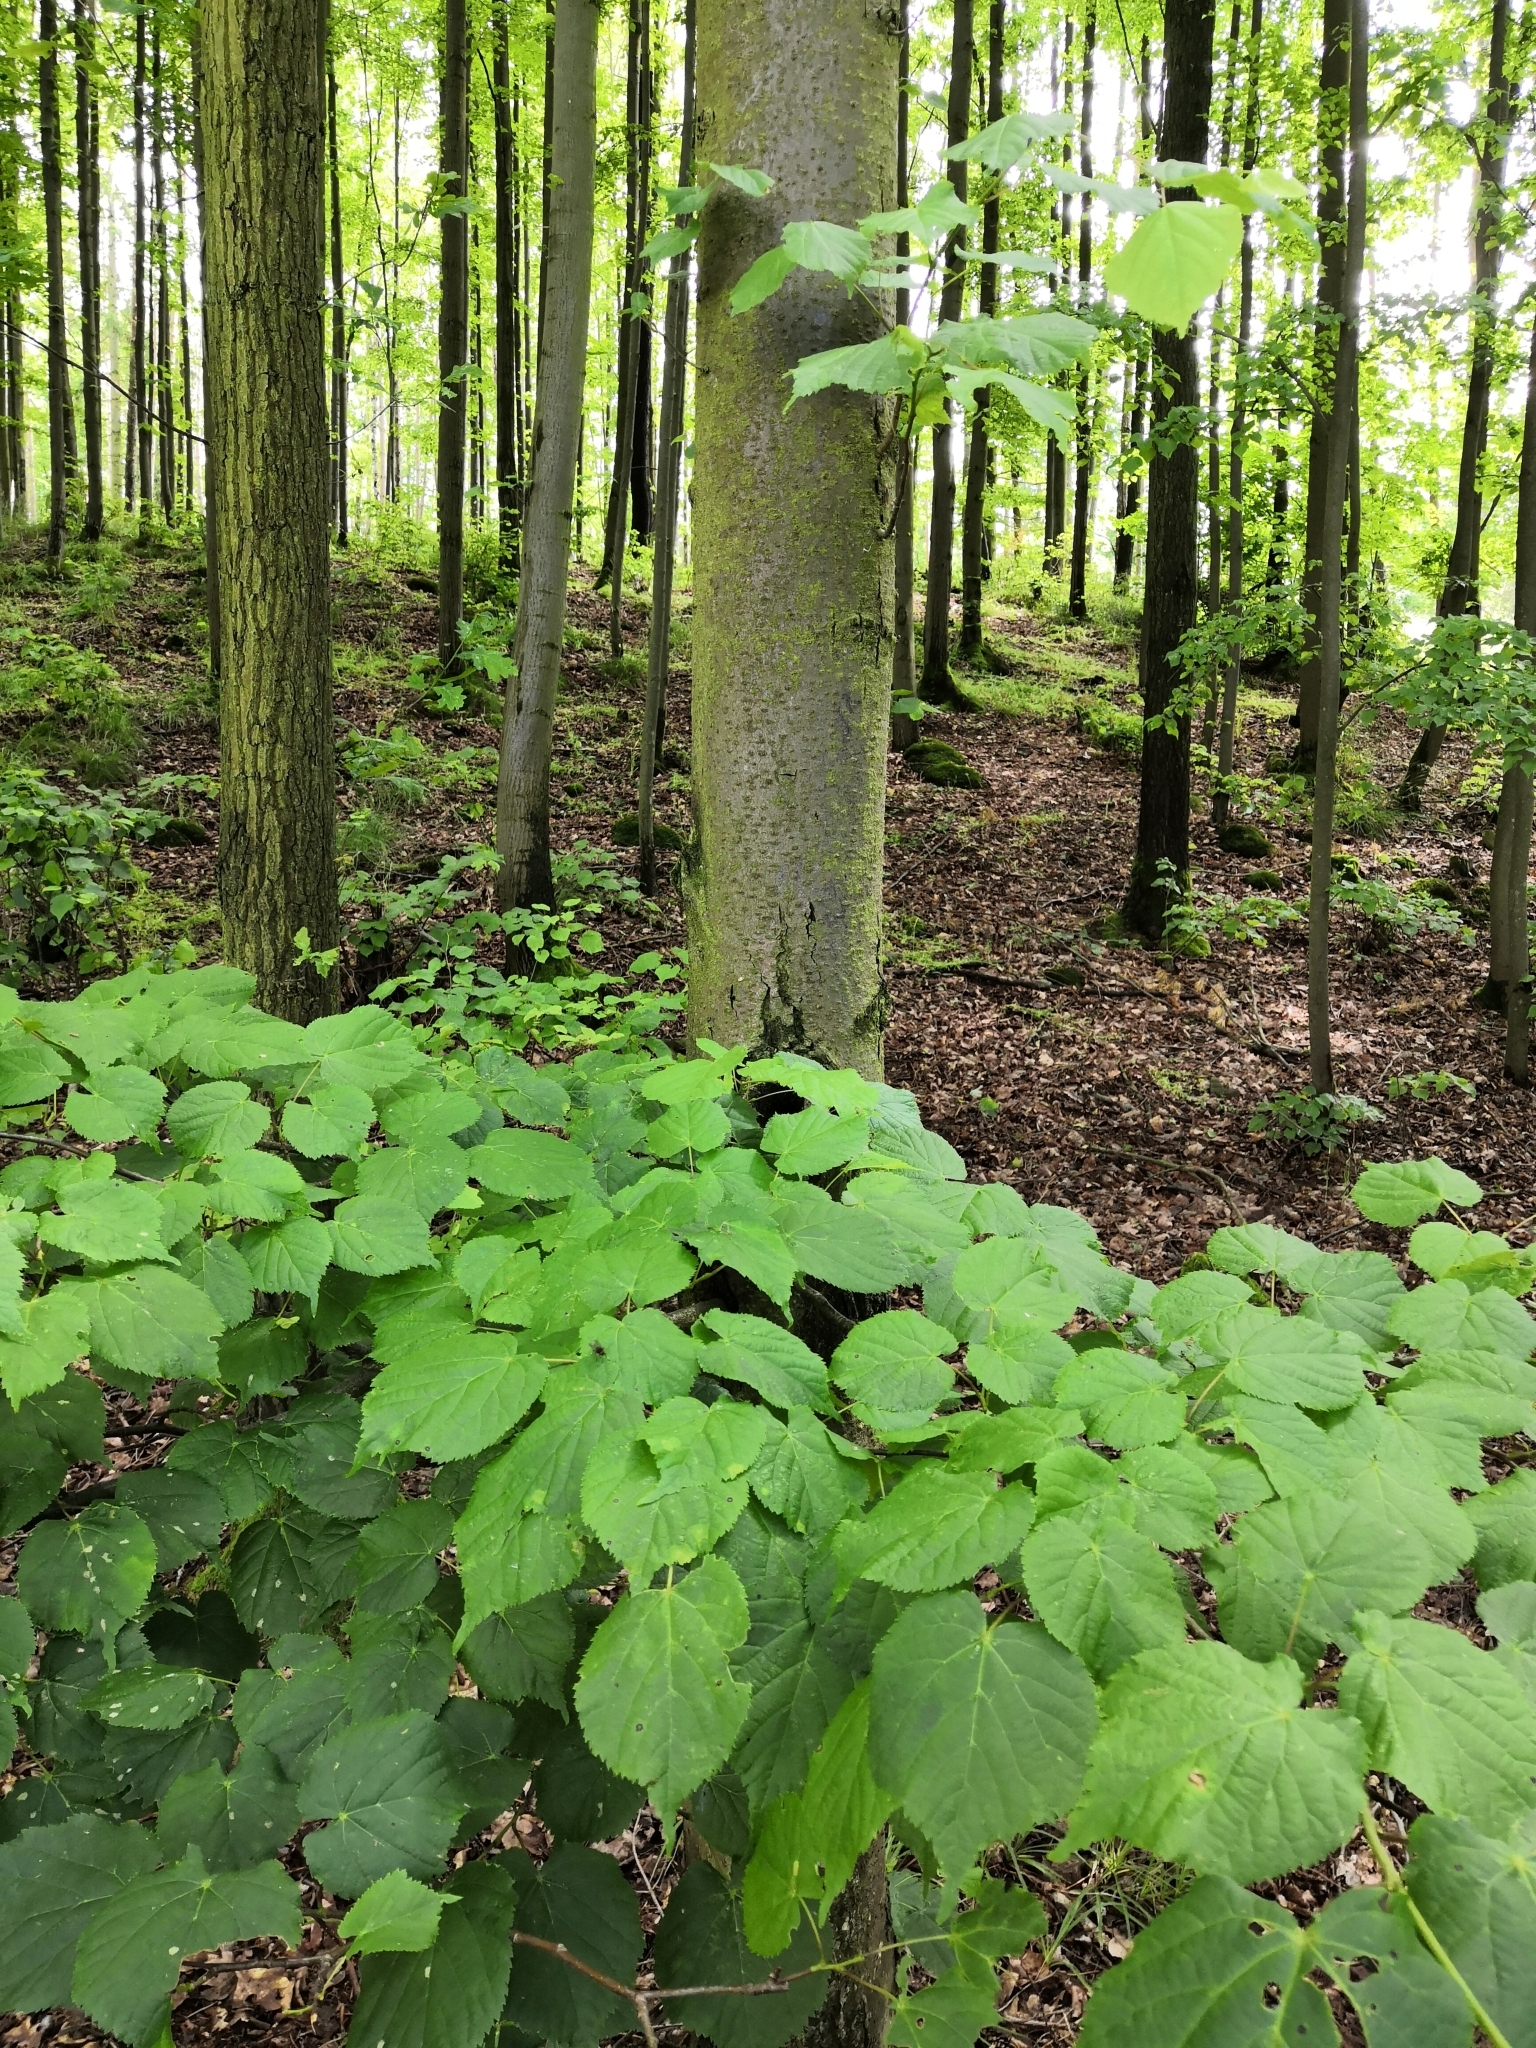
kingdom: Plantae
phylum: Tracheophyta
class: Magnoliopsida
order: Malvales
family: Malvaceae
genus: Tilia
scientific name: Tilia cordata
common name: Small-leaved lime
